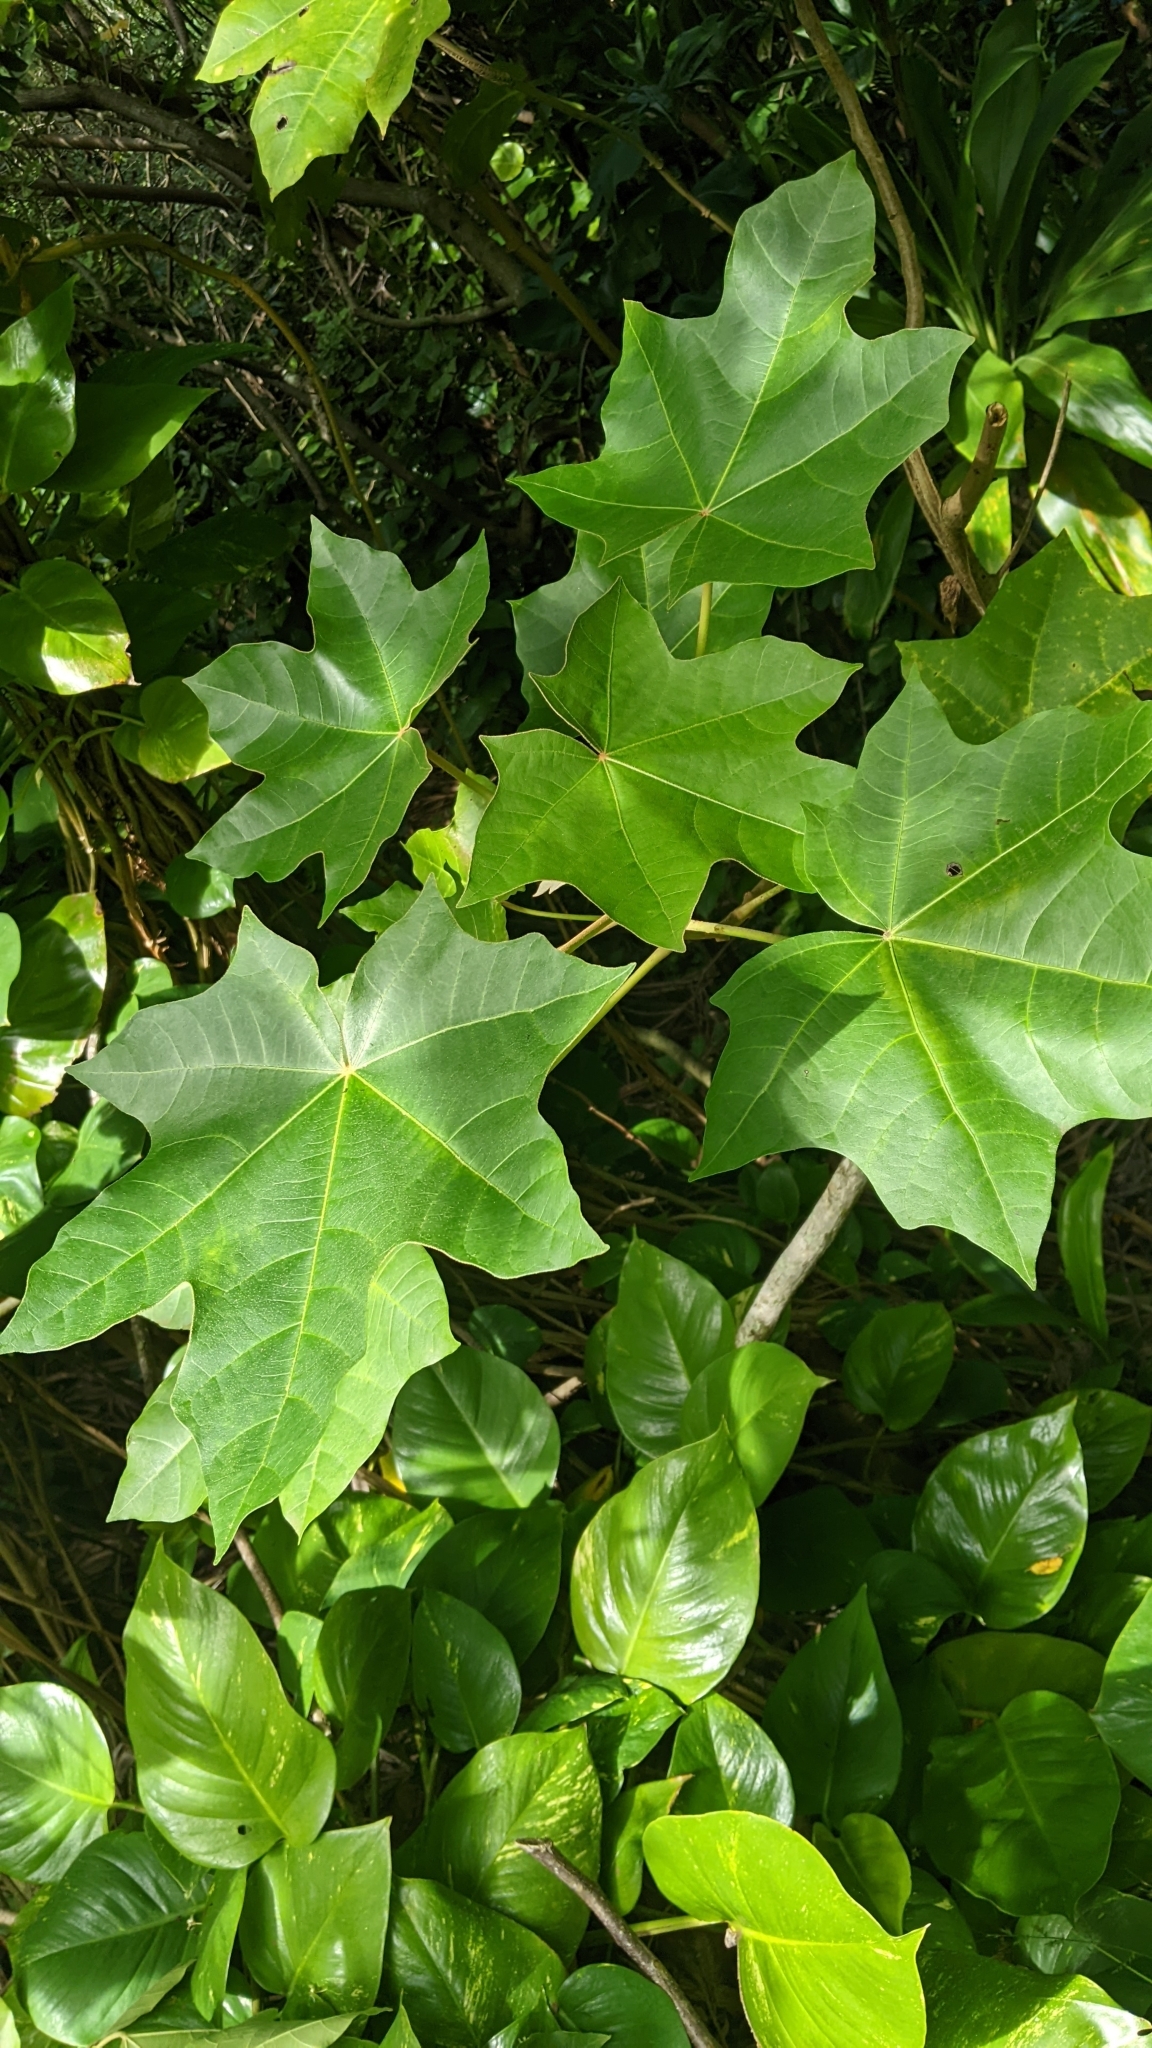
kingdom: Plantae
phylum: Tracheophyta
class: Magnoliopsida
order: Malpighiales
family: Euphorbiaceae
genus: Aleurites
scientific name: Aleurites moluccanus
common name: Candlenut tree
